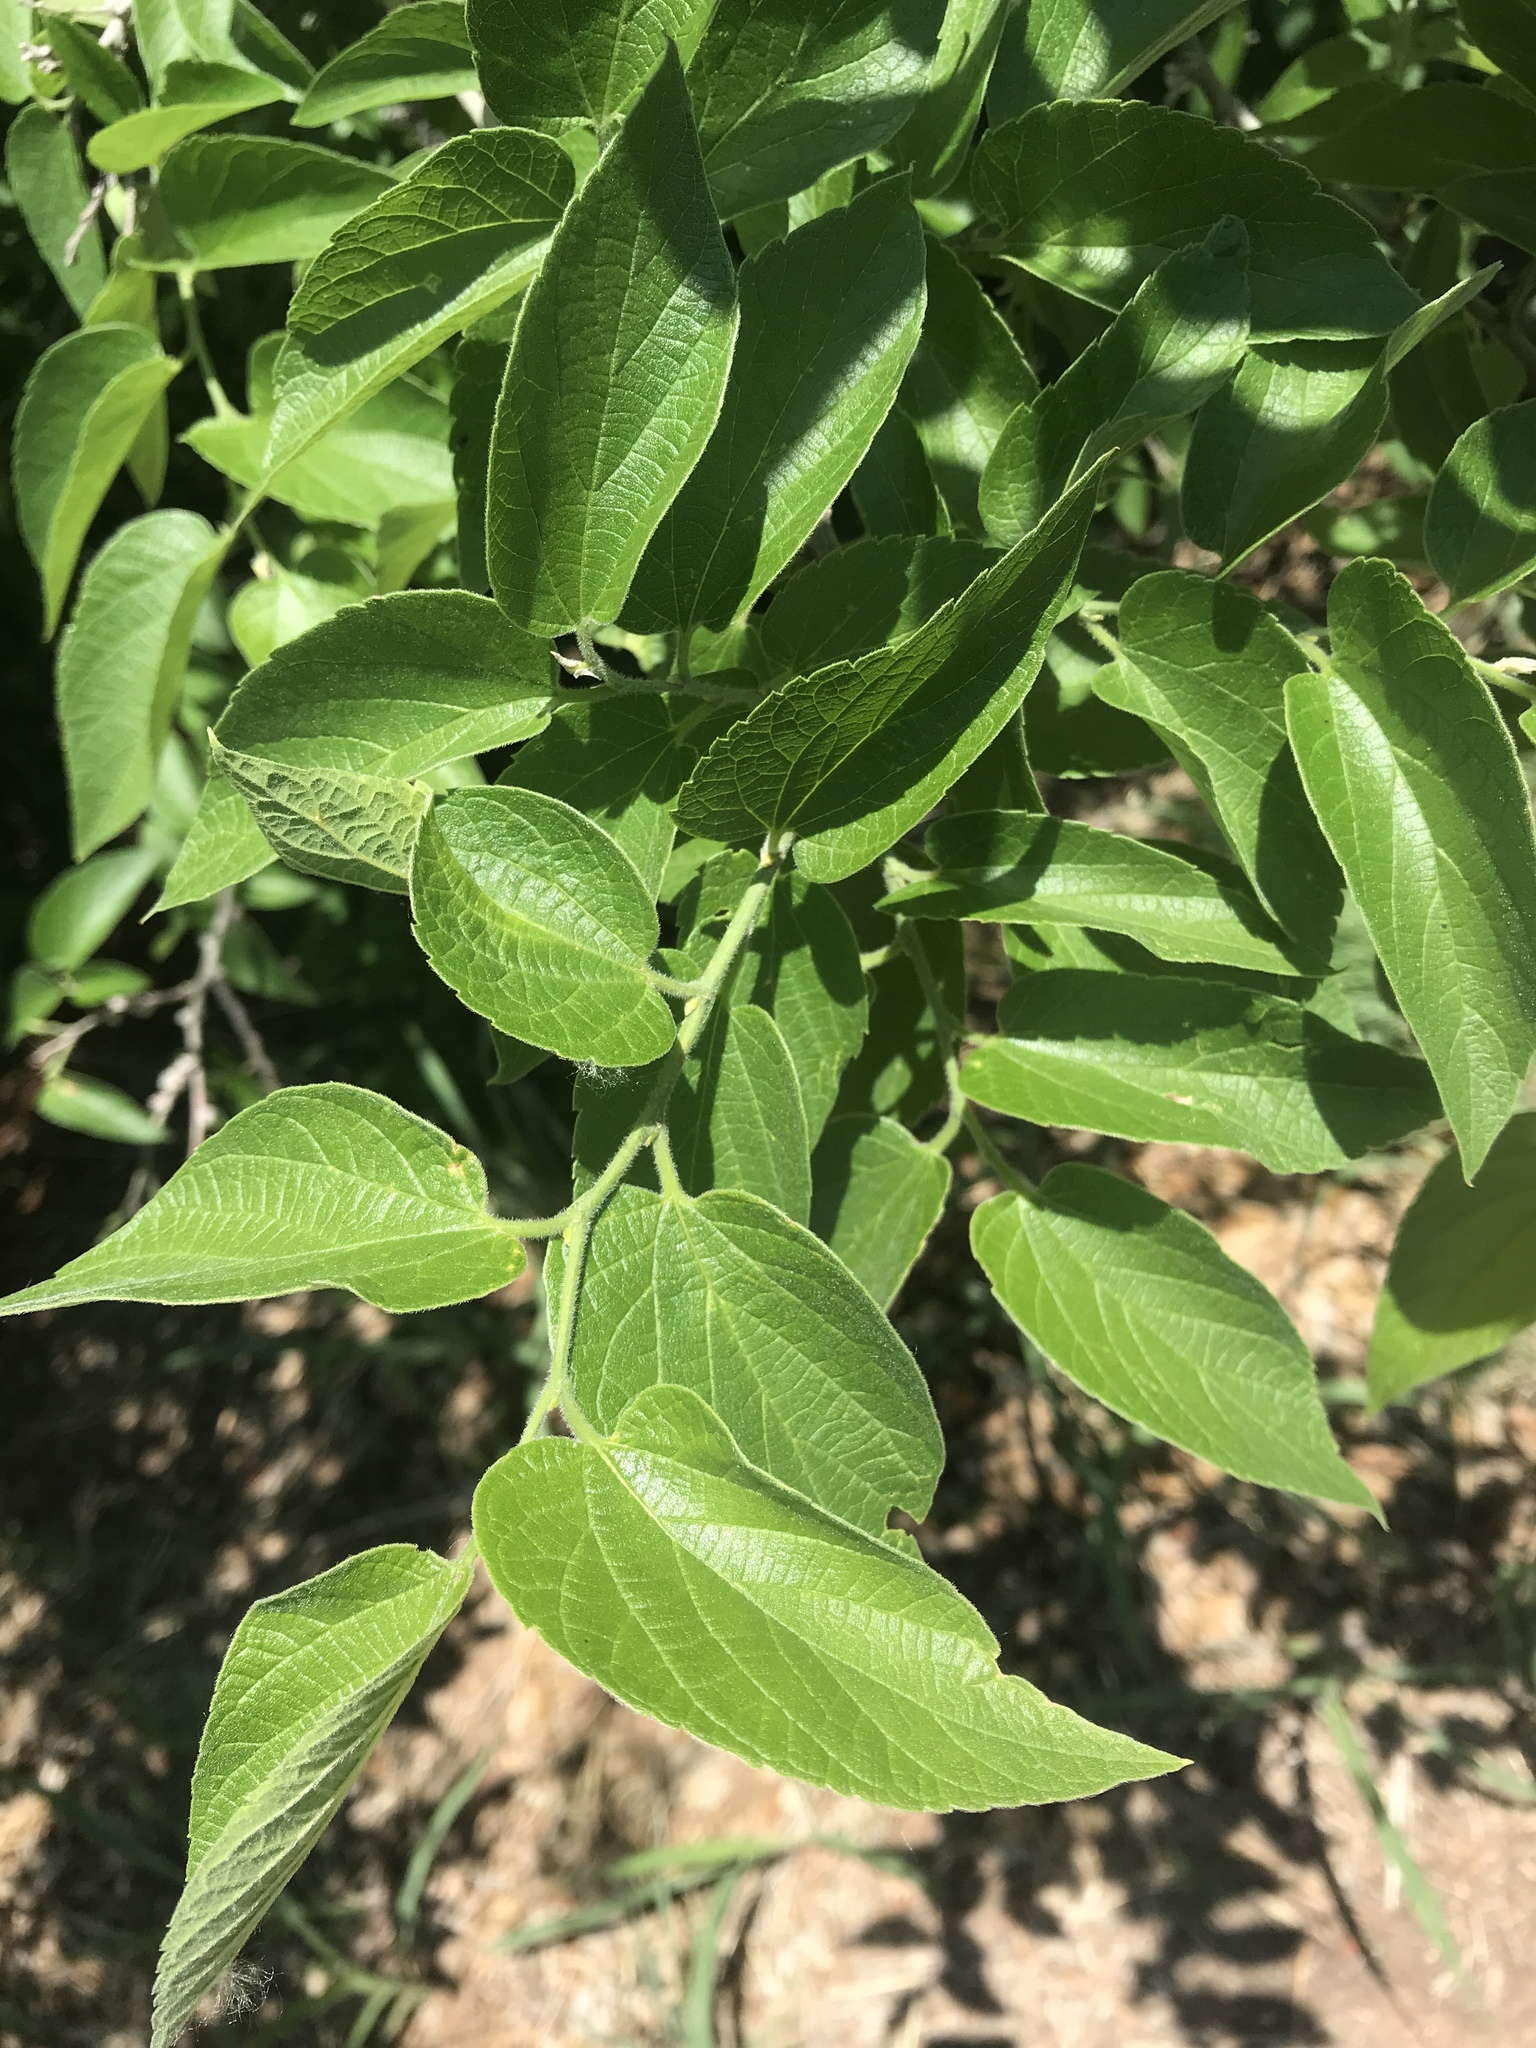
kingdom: Plantae
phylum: Tracheophyta
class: Magnoliopsida
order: Rosales
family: Cannabaceae
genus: Celtis
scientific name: Celtis laevigata
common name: Sugarberry
